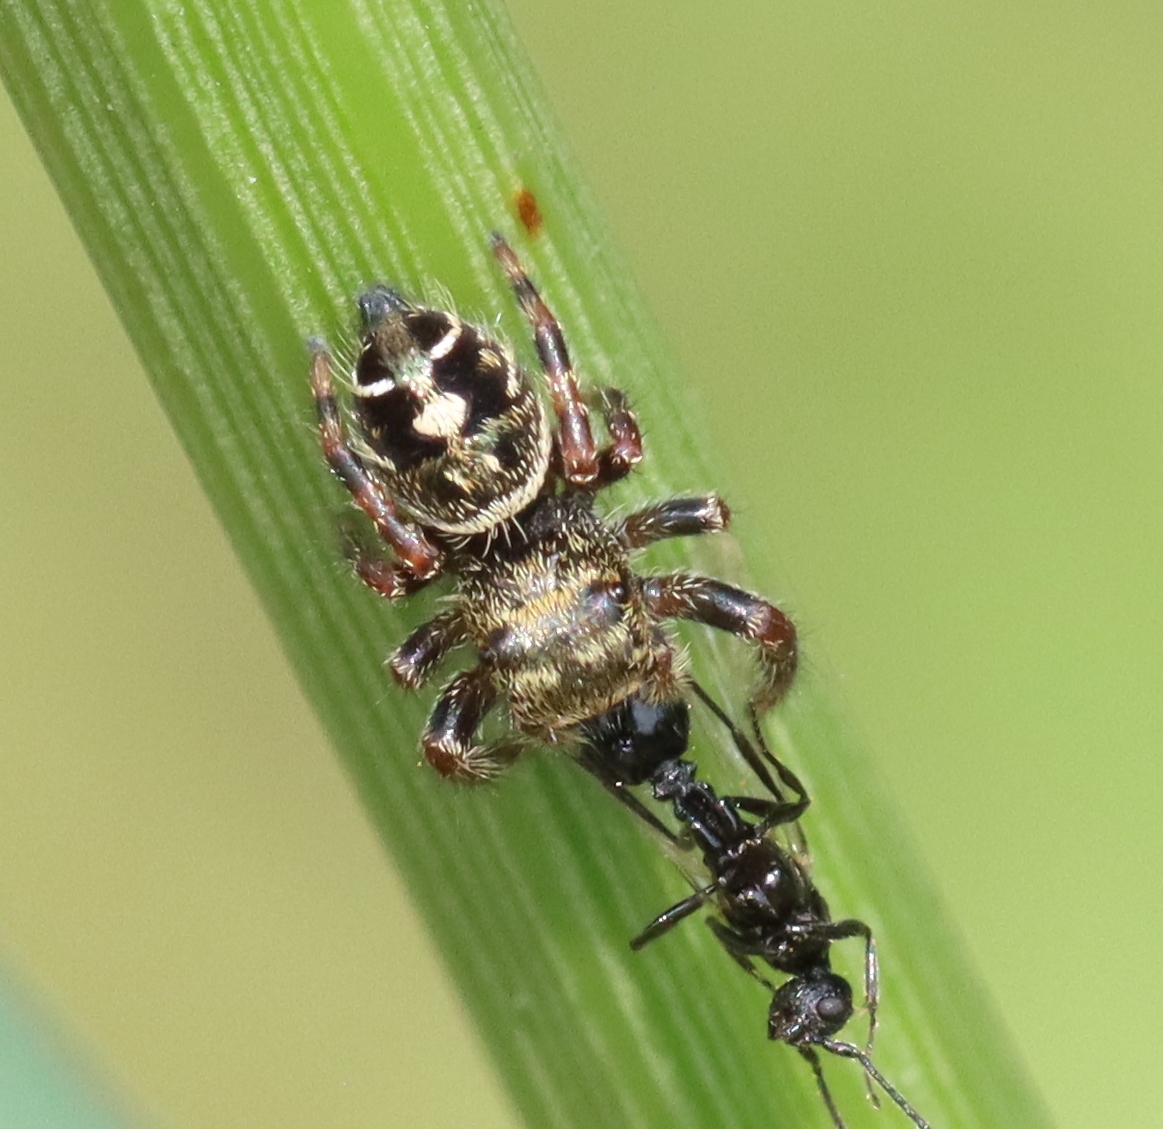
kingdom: Animalia
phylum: Arthropoda
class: Arachnida
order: Araneae
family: Salticidae
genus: Phidippus
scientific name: Phidippus audax
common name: Bold jumper
